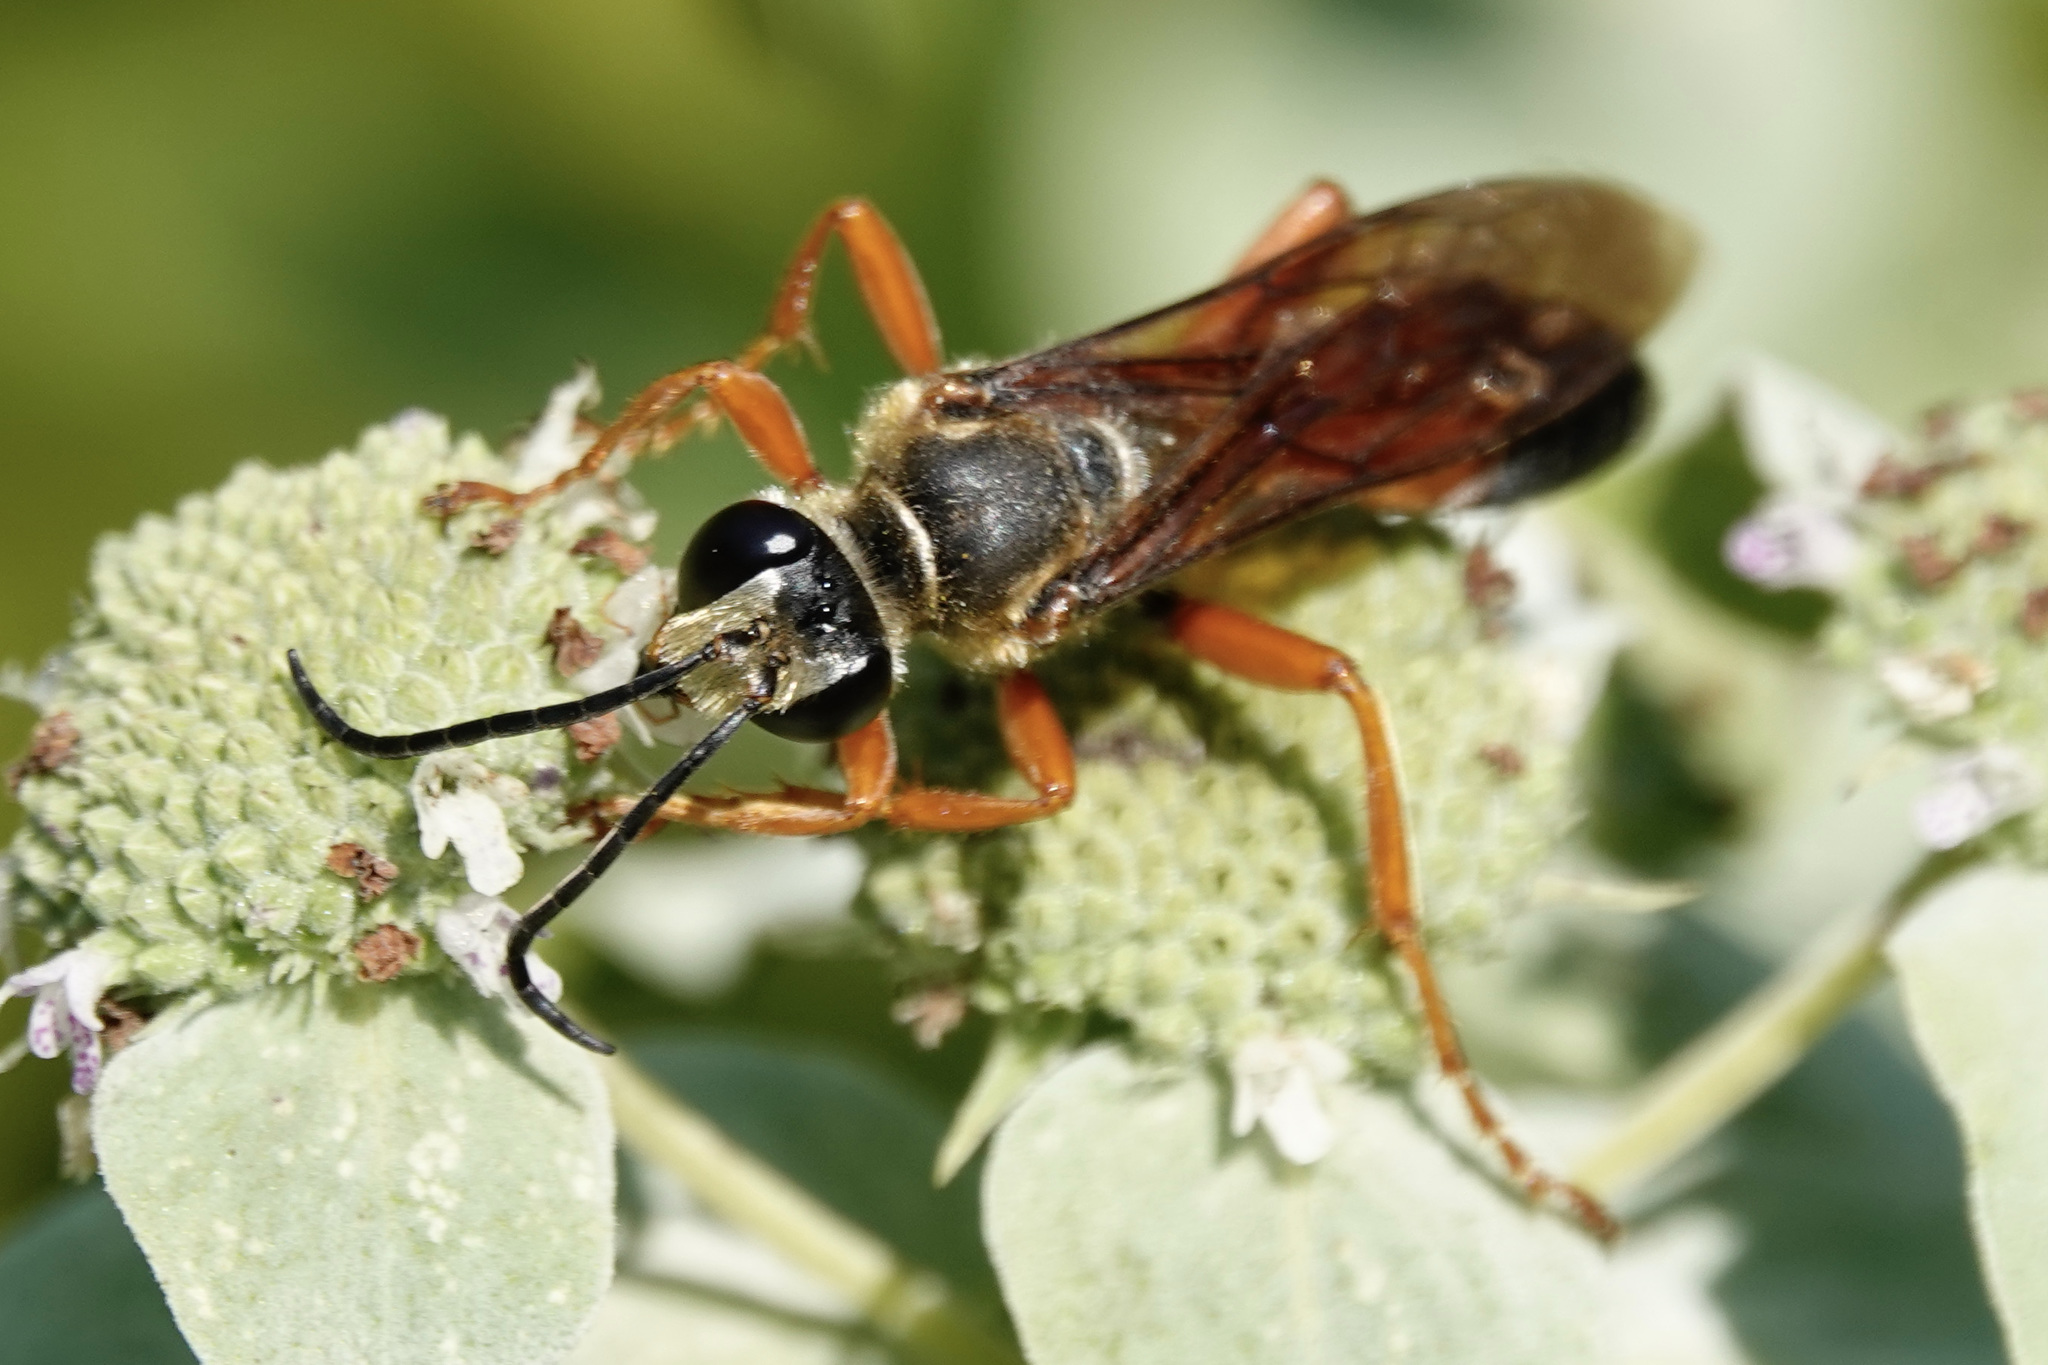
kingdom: Animalia
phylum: Arthropoda
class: Insecta
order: Hymenoptera
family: Sphecidae
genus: Sphex
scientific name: Sphex ichneumoneus
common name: Great golden digger wasp
